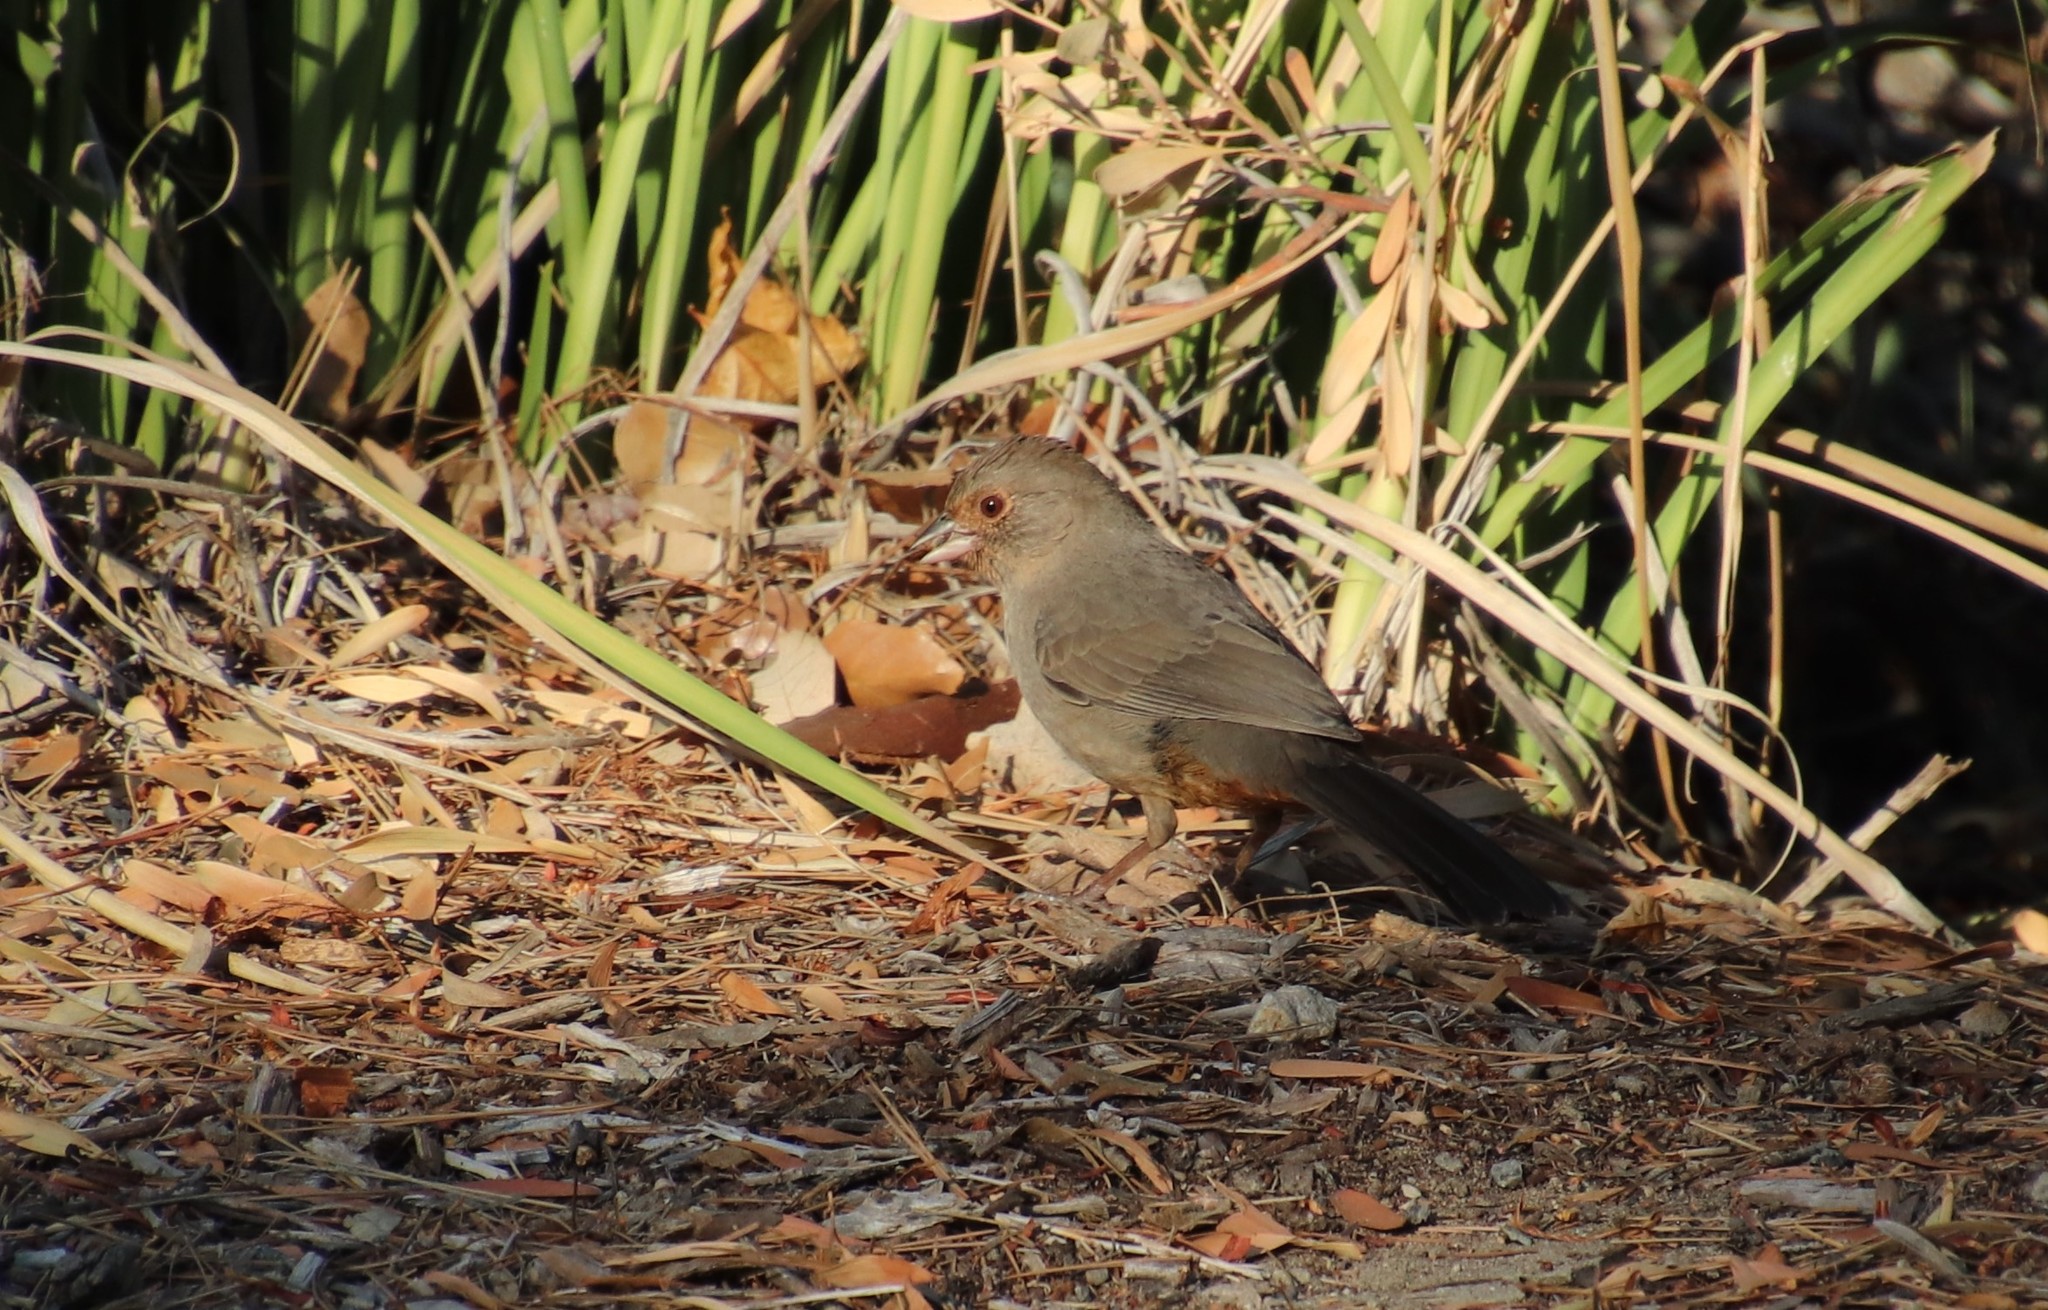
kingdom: Animalia
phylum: Chordata
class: Aves
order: Passeriformes
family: Passerellidae
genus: Melozone
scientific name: Melozone crissalis
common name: California towhee
